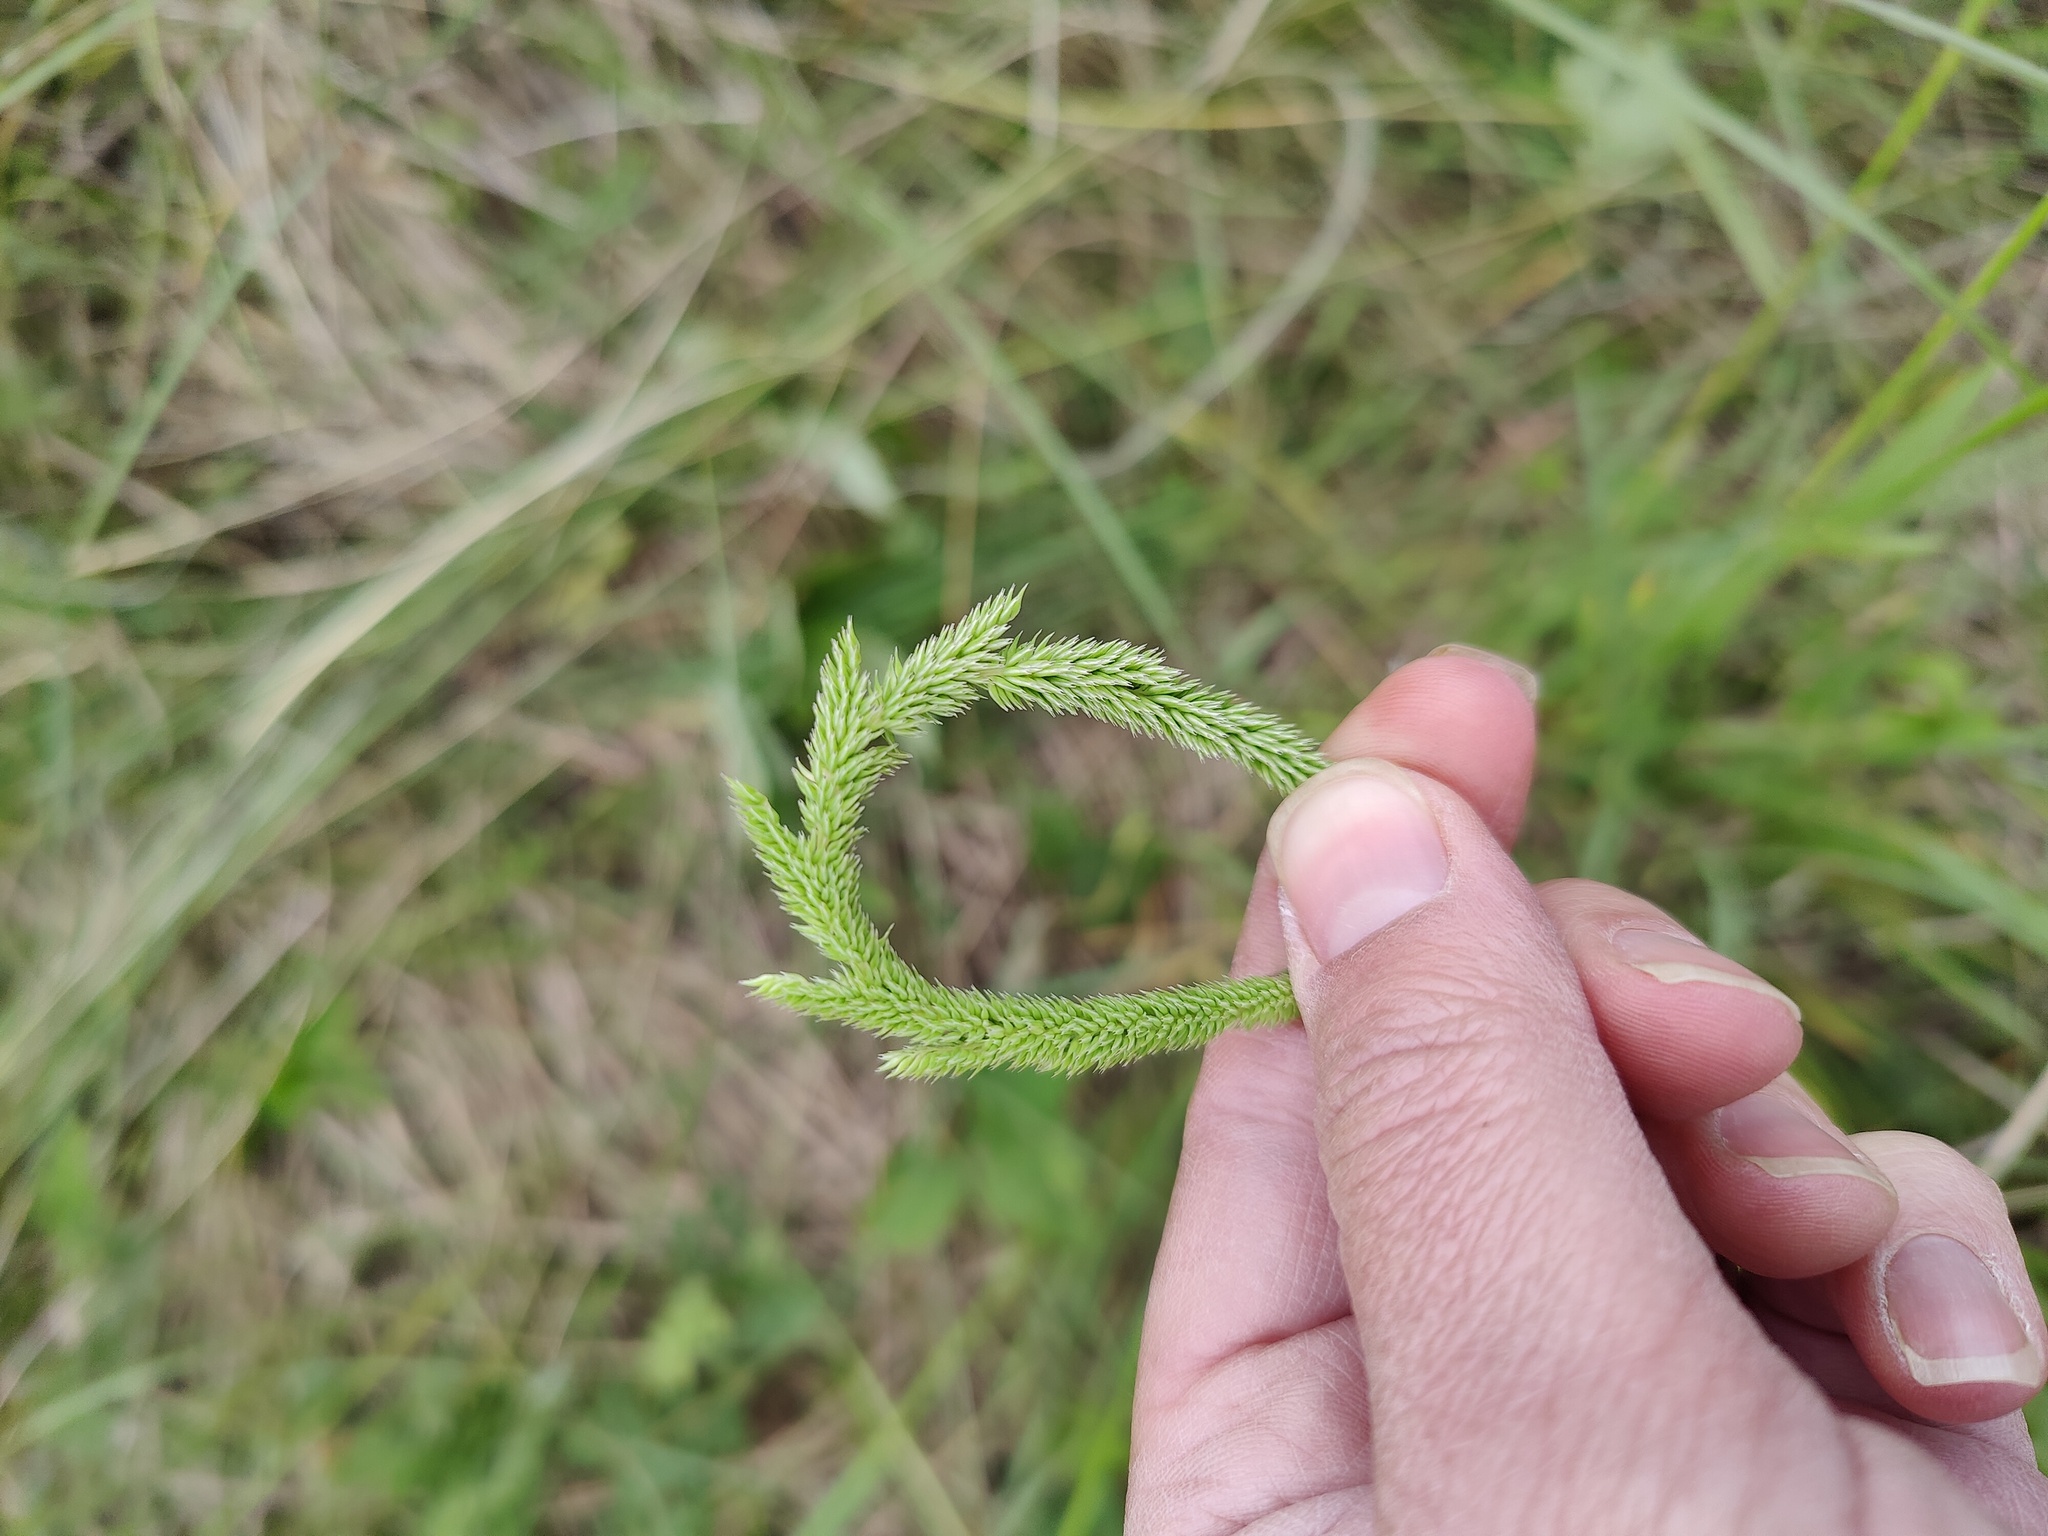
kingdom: Plantae
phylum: Tracheophyta
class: Liliopsida
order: Poales
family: Poaceae
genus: Phleum
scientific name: Phleum phleoides
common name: Purple-stem cat's-tail
